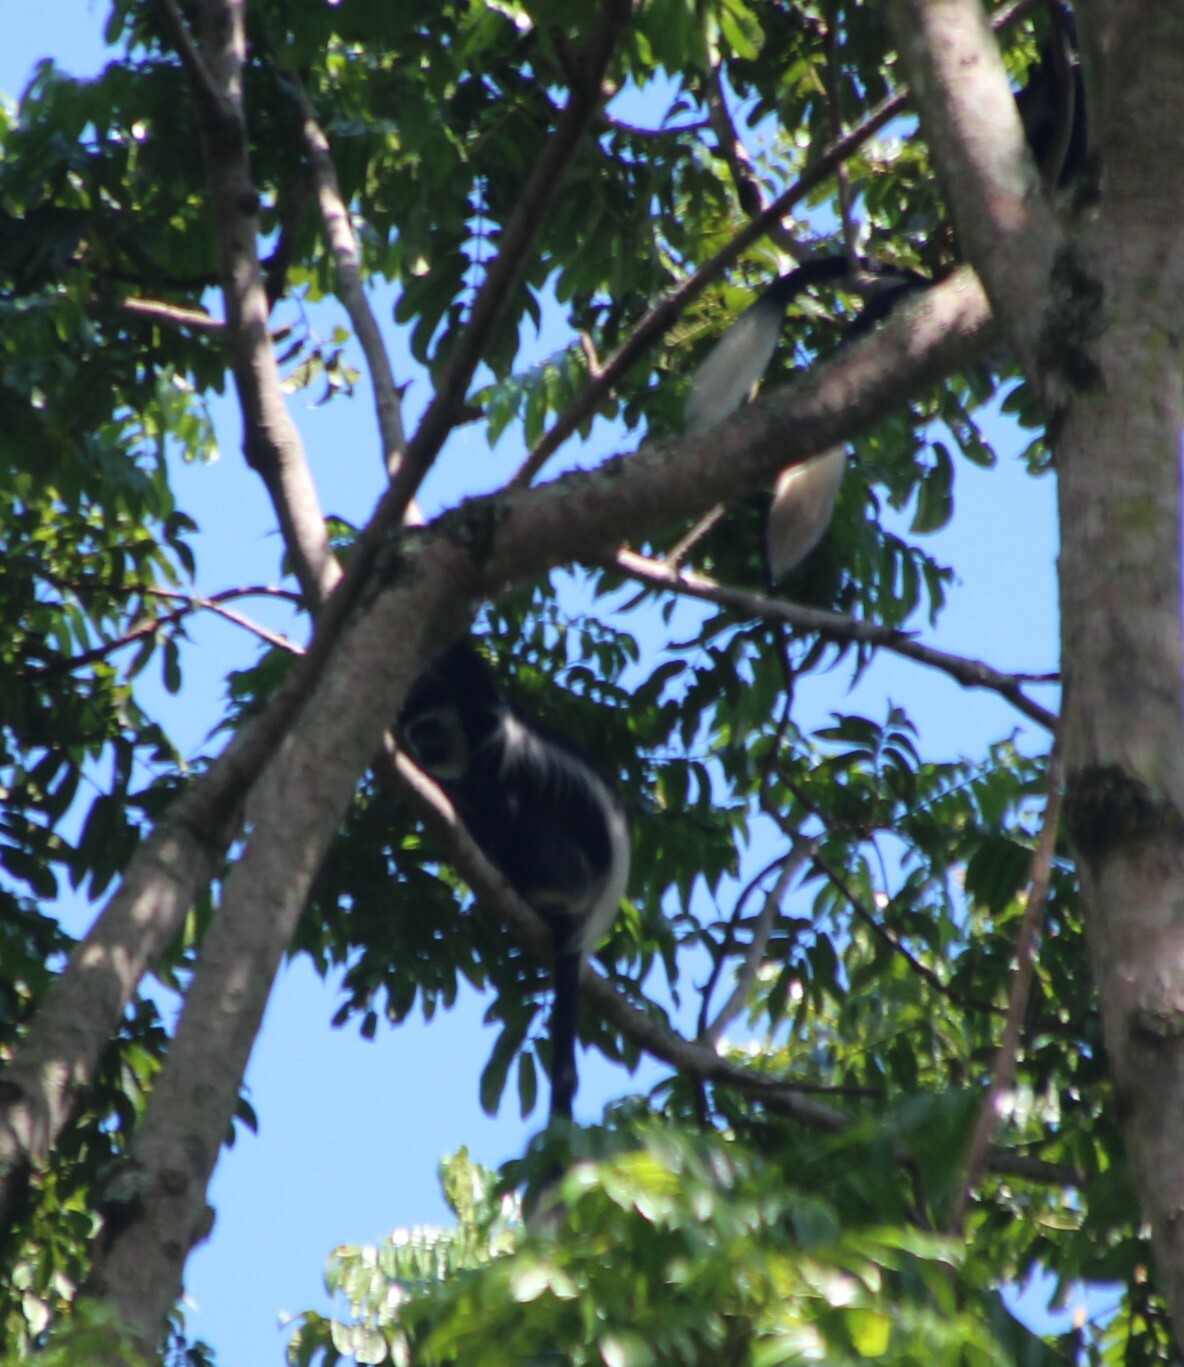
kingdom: Animalia
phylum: Chordata
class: Mammalia
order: Primates
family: Cercopithecidae
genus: Colobus
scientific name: Colobus guereza
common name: Mantled guereza
